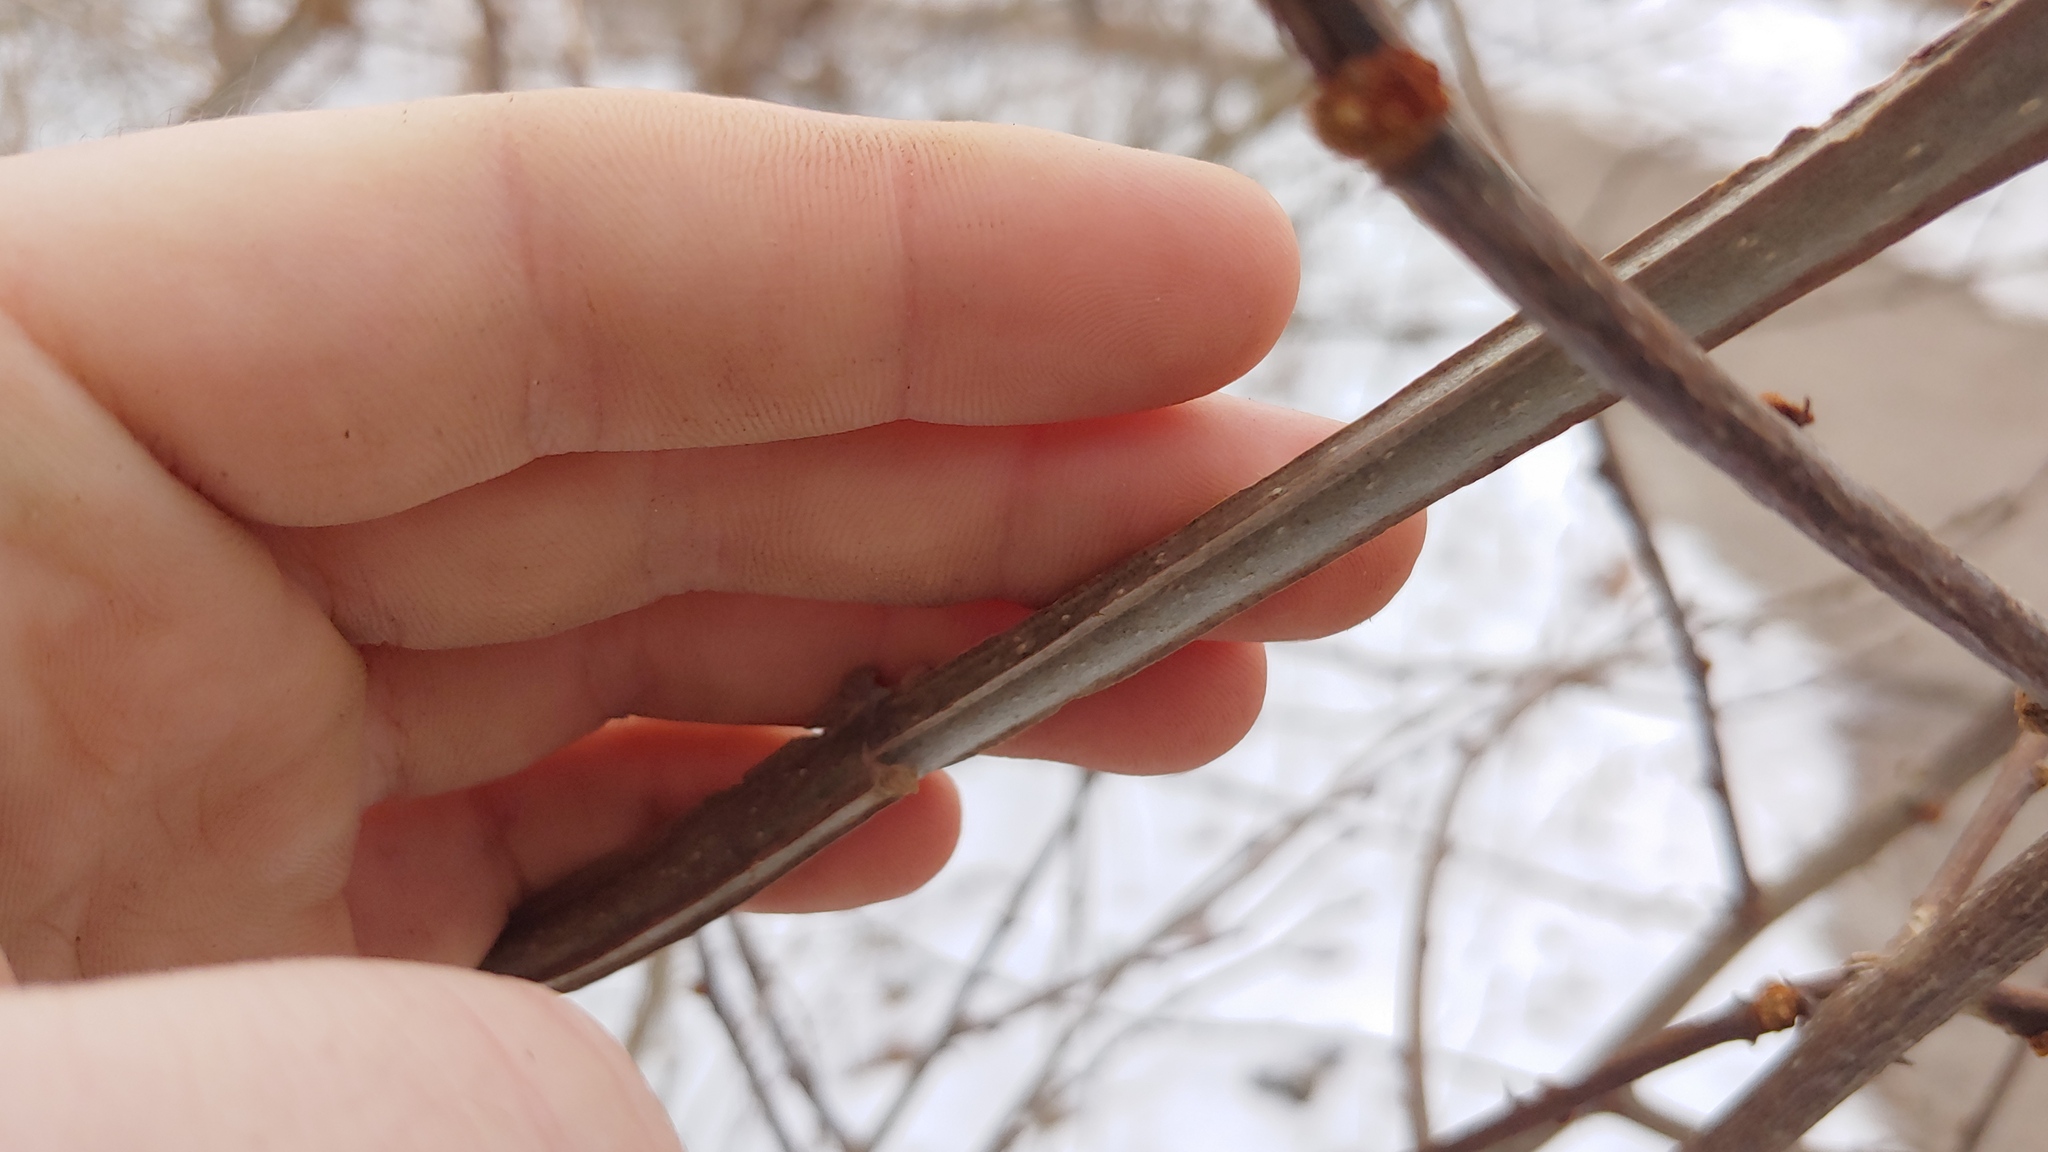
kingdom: Plantae
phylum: Tracheophyta
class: Magnoliopsida
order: Lamiales
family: Oleaceae
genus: Fraxinus
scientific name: Fraxinus quadrangulata
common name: Blue ash
